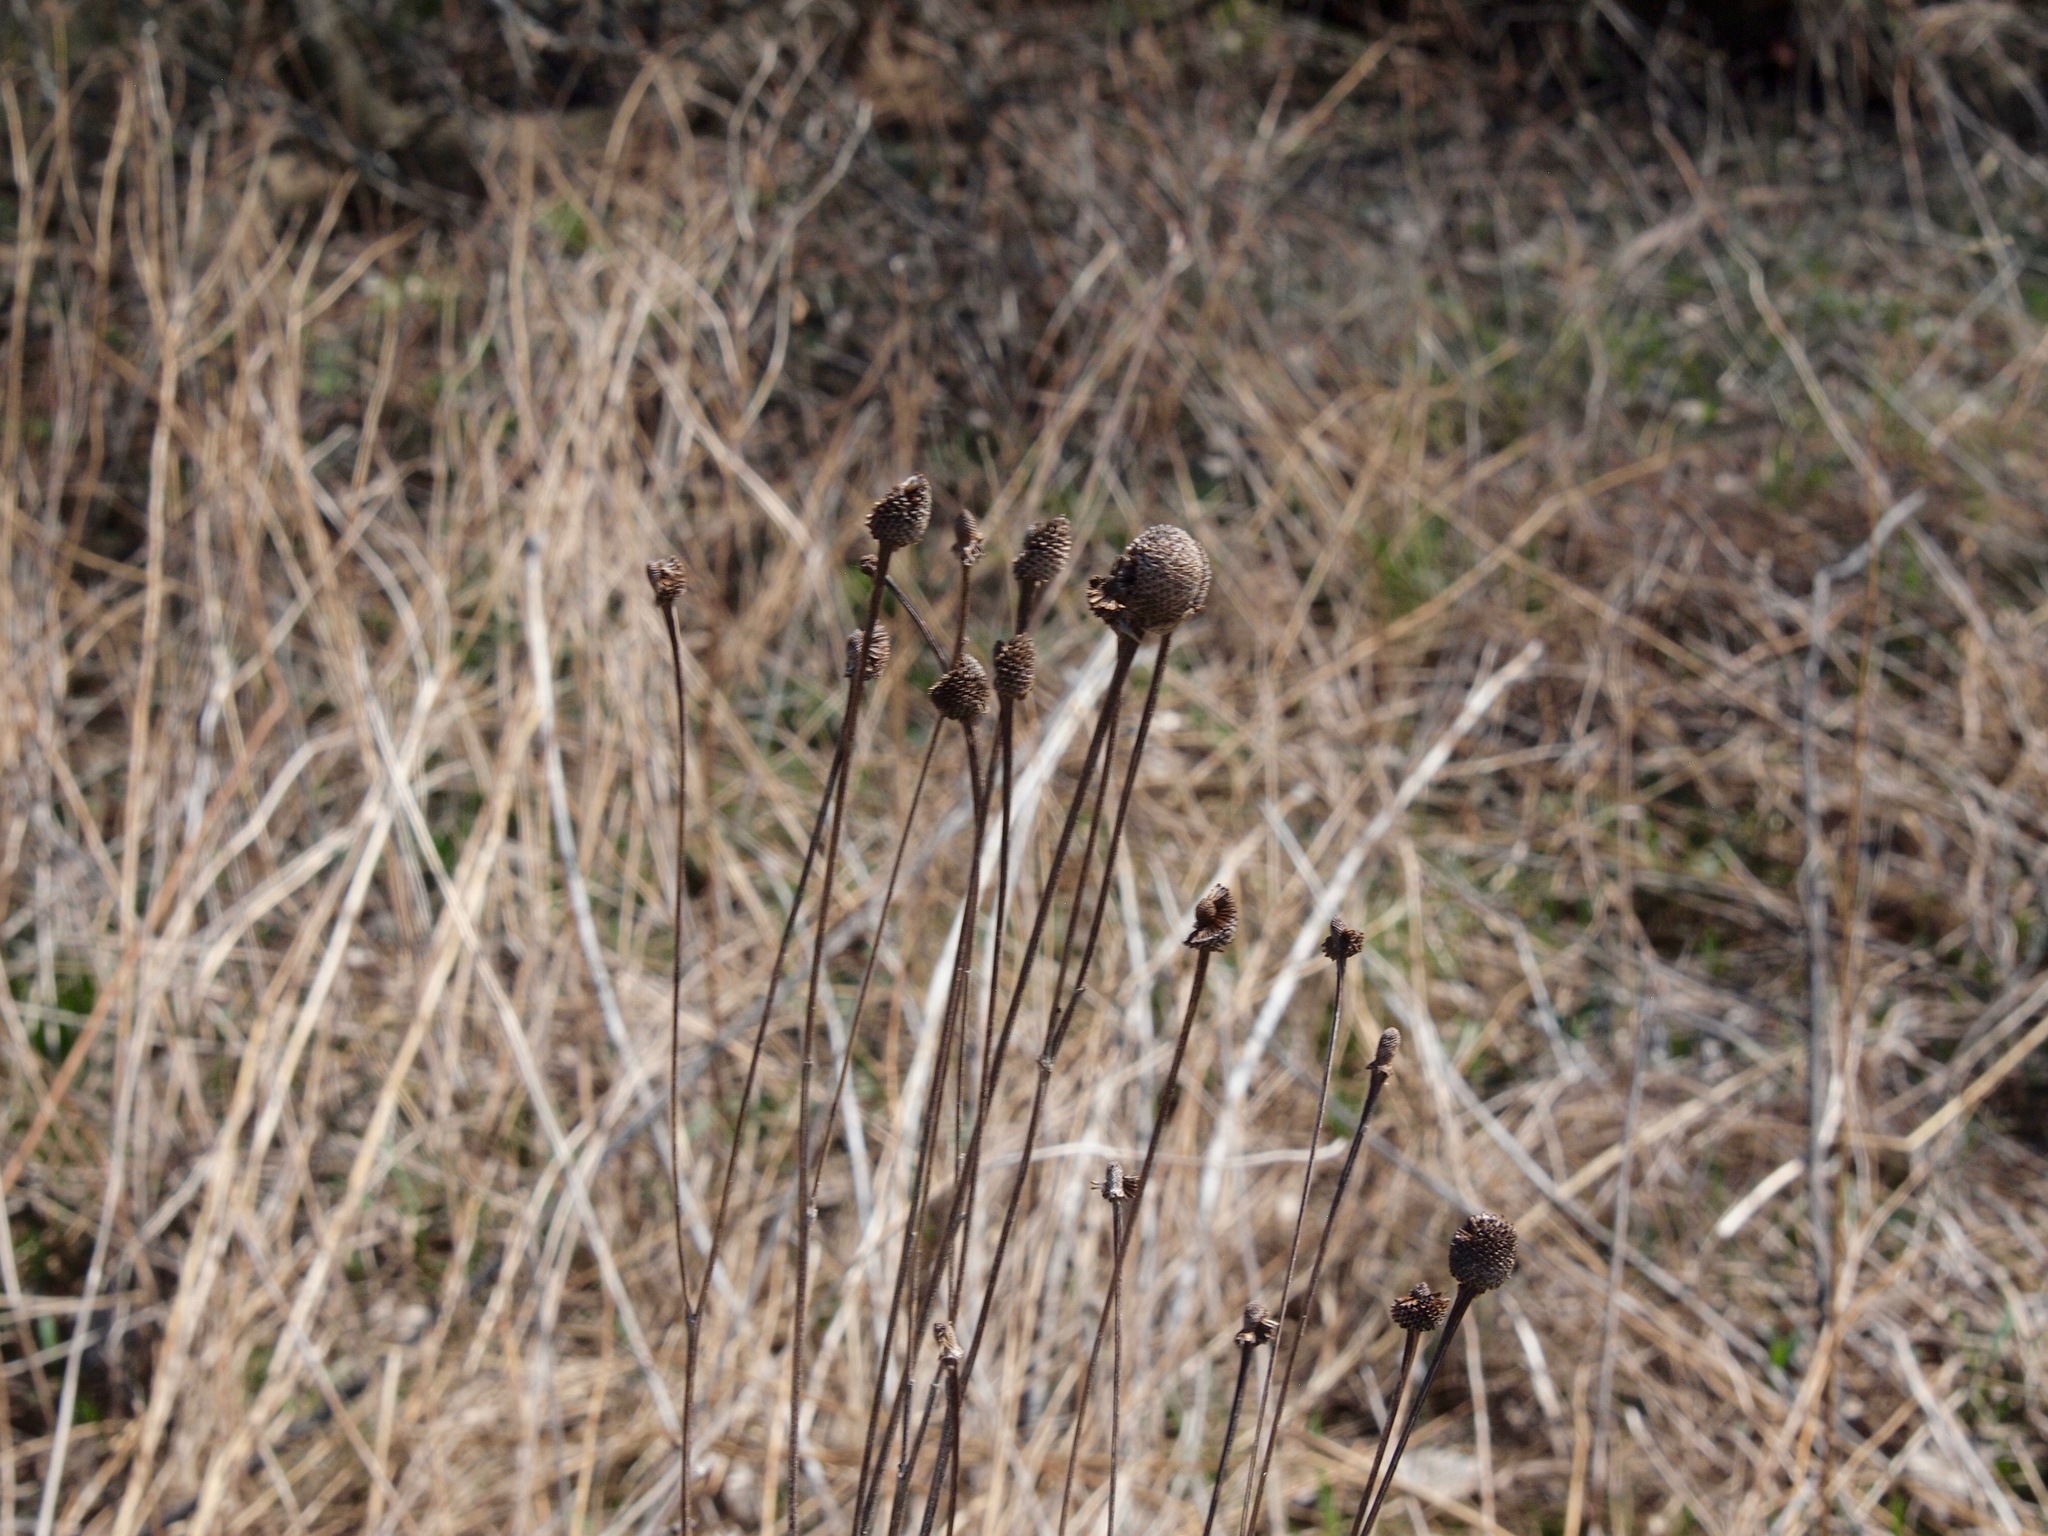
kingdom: Plantae
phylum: Tracheophyta
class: Magnoliopsida
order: Asterales
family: Asteraceae
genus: Ratibida
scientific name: Ratibida pinnata
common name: Drooping prairie-coneflower
